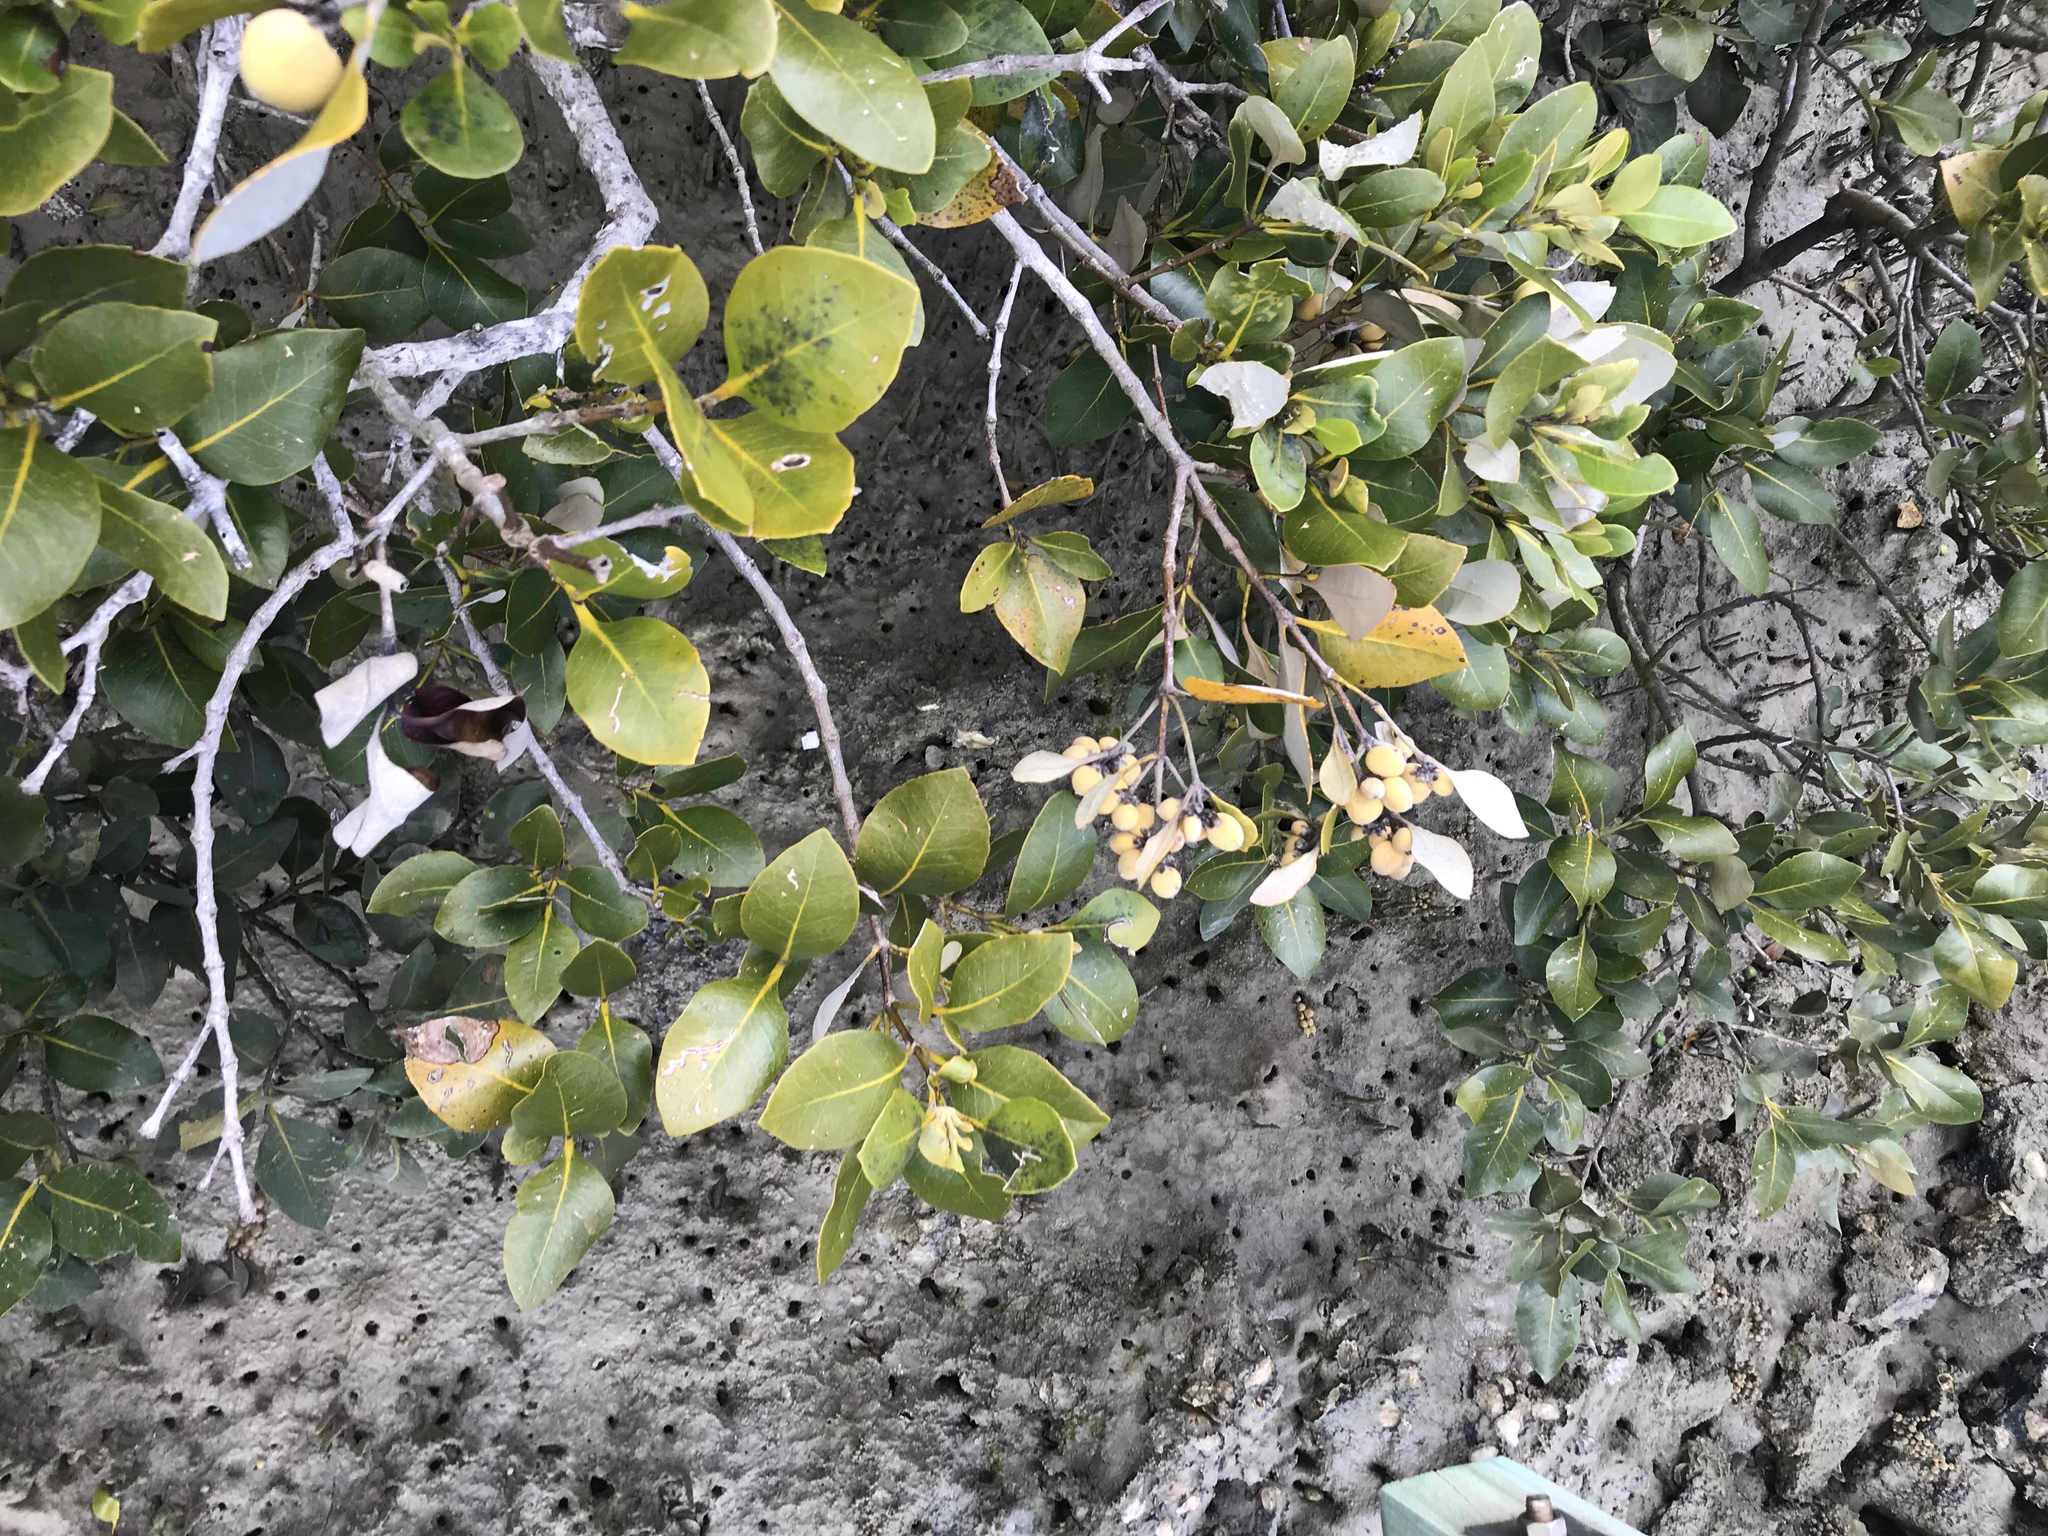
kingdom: Plantae
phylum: Tracheophyta
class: Magnoliopsida
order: Lamiales
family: Acanthaceae
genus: Avicennia
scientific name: Avicennia marina
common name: Gray mangrove
